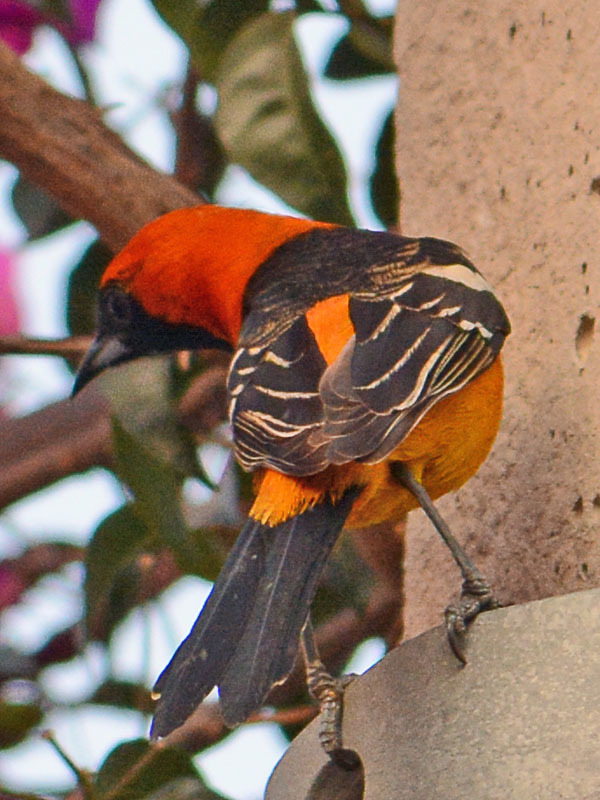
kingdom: Animalia
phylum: Chordata
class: Aves
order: Passeriformes
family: Icteridae
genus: Icterus
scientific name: Icterus cucullatus
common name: Hooded oriole
